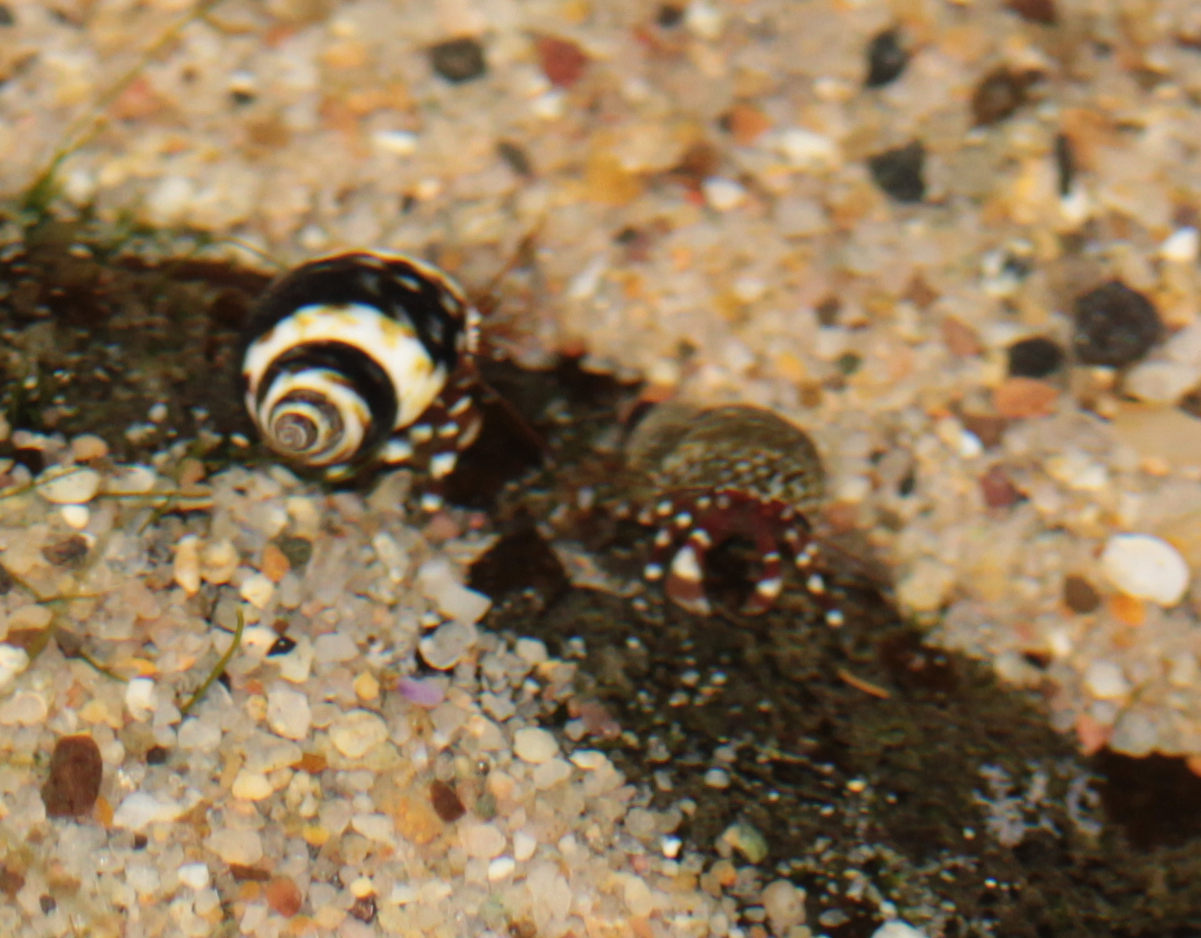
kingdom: Animalia
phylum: Arthropoda
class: Malacostraca
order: Decapoda
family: Paguridae
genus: Pagurus
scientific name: Pagurus samuelis
